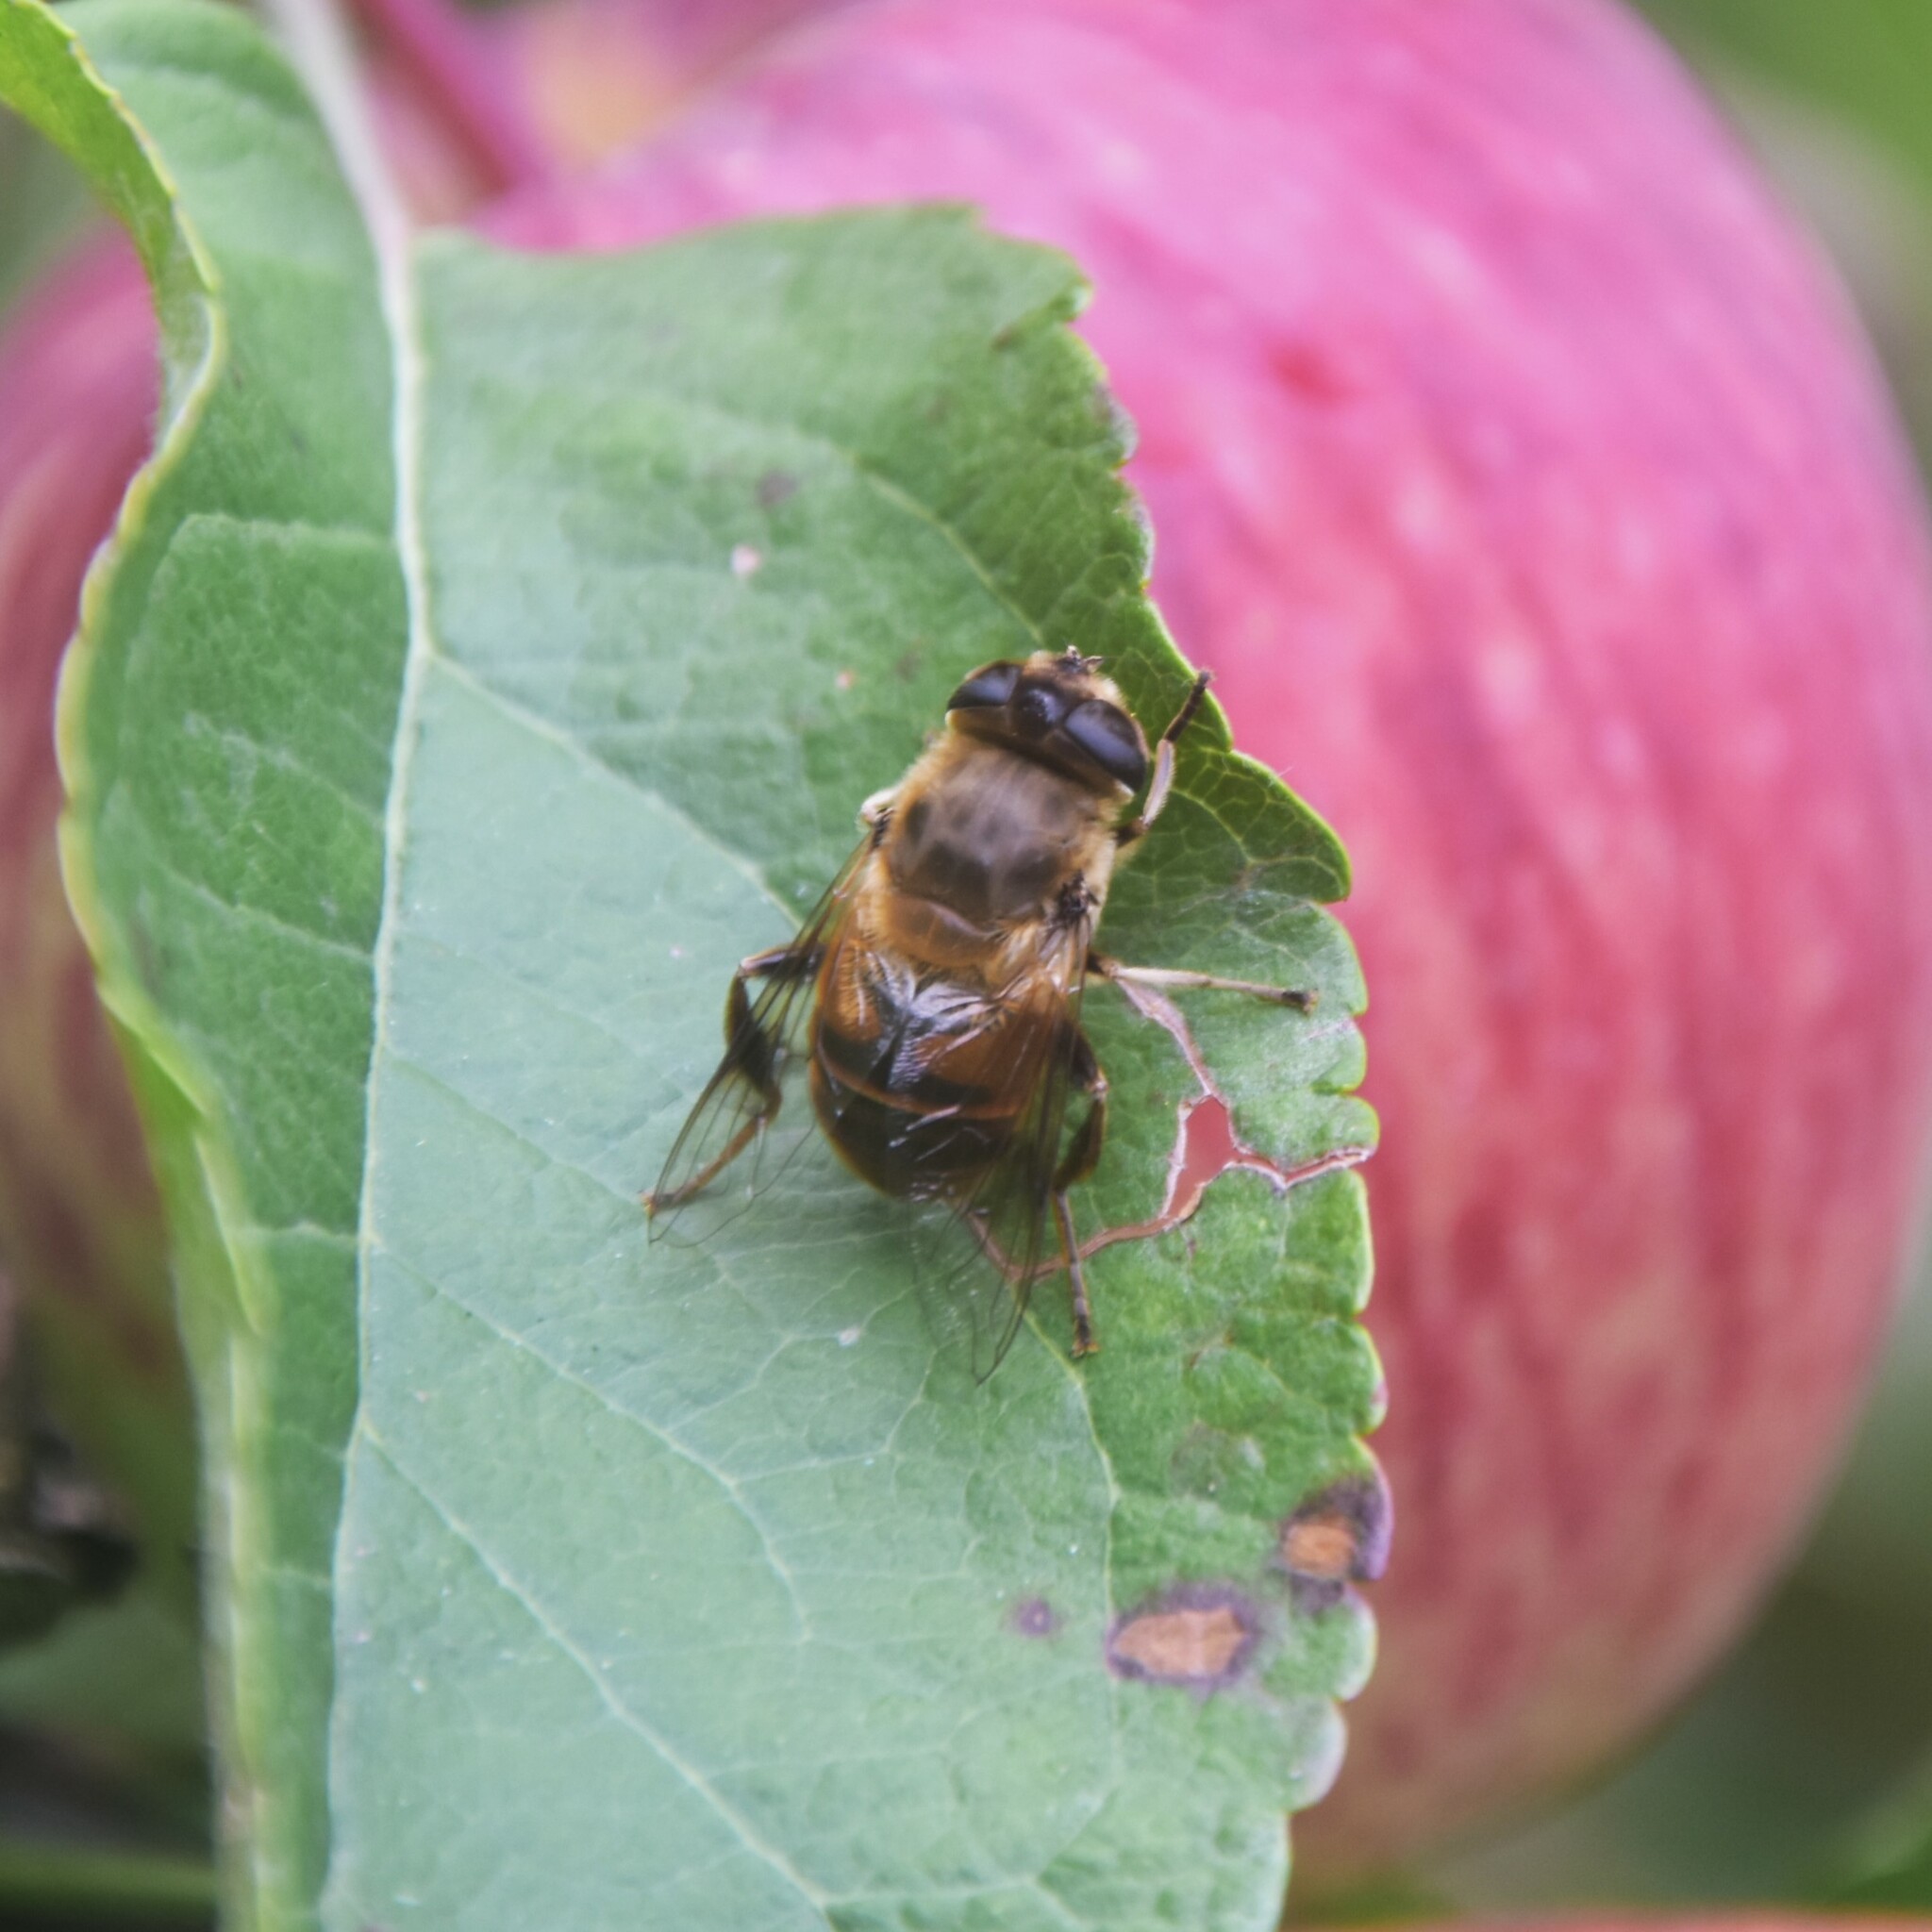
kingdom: Animalia
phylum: Arthropoda
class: Insecta
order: Diptera
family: Syrphidae
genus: Eristalis
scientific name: Eristalis tenax
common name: Drone fly
